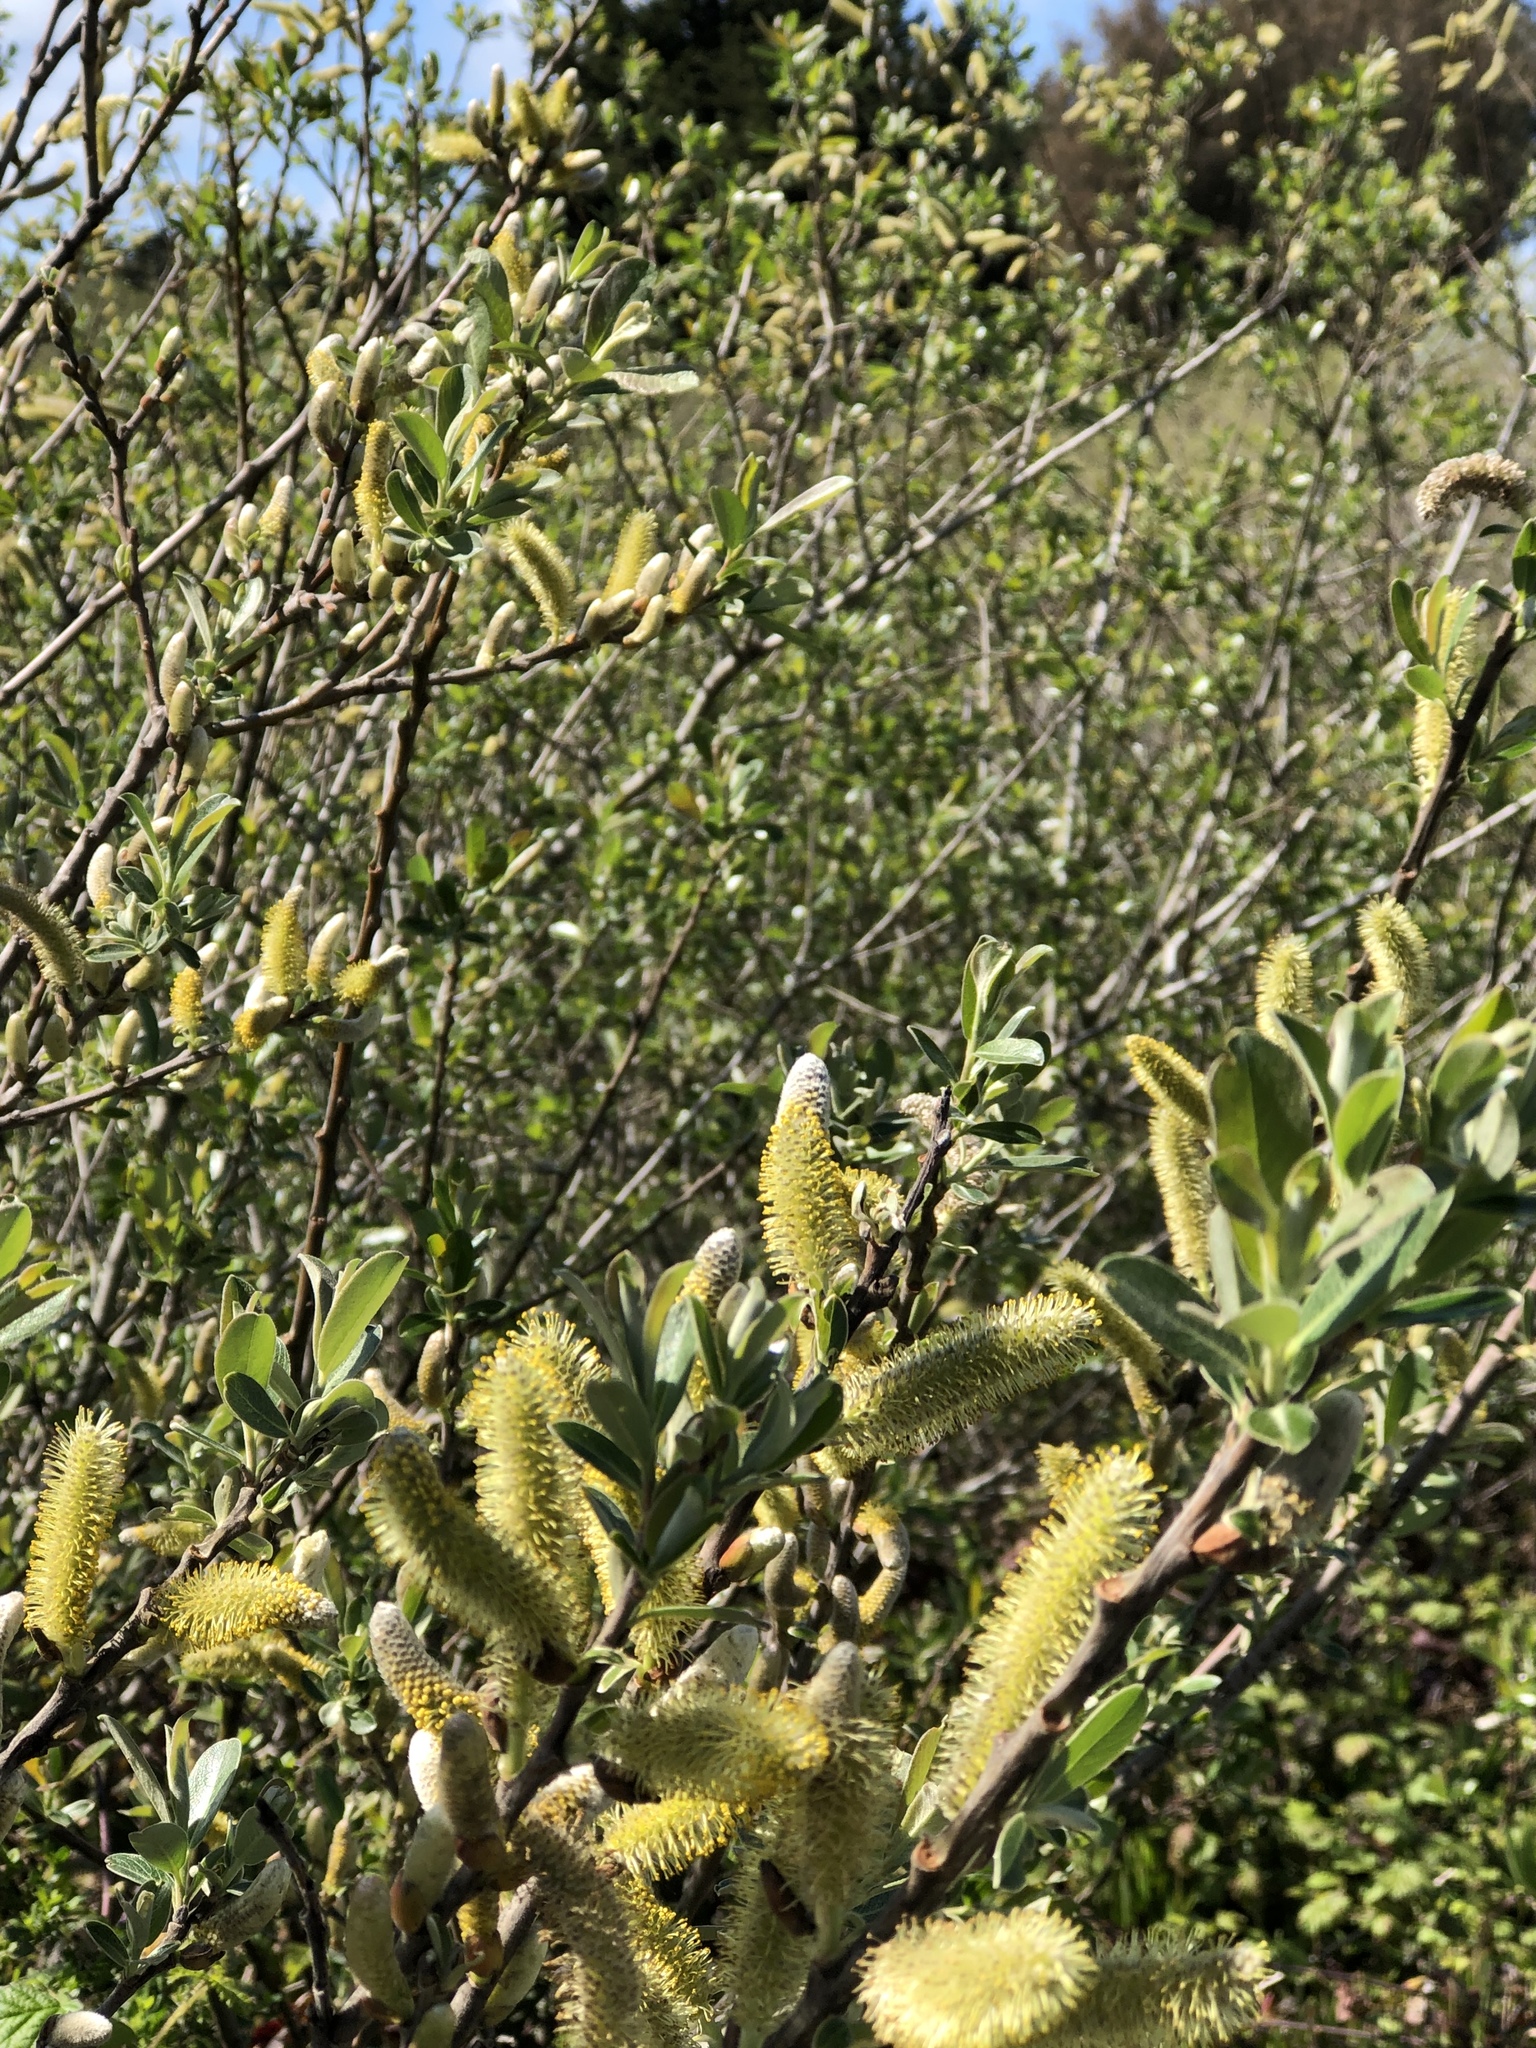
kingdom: Plantae
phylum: Tracheophyta
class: Magnoliopsida
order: Malpighiales
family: Salicaceae
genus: Salix
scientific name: Salix lasiolepis
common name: Arroyo willow
